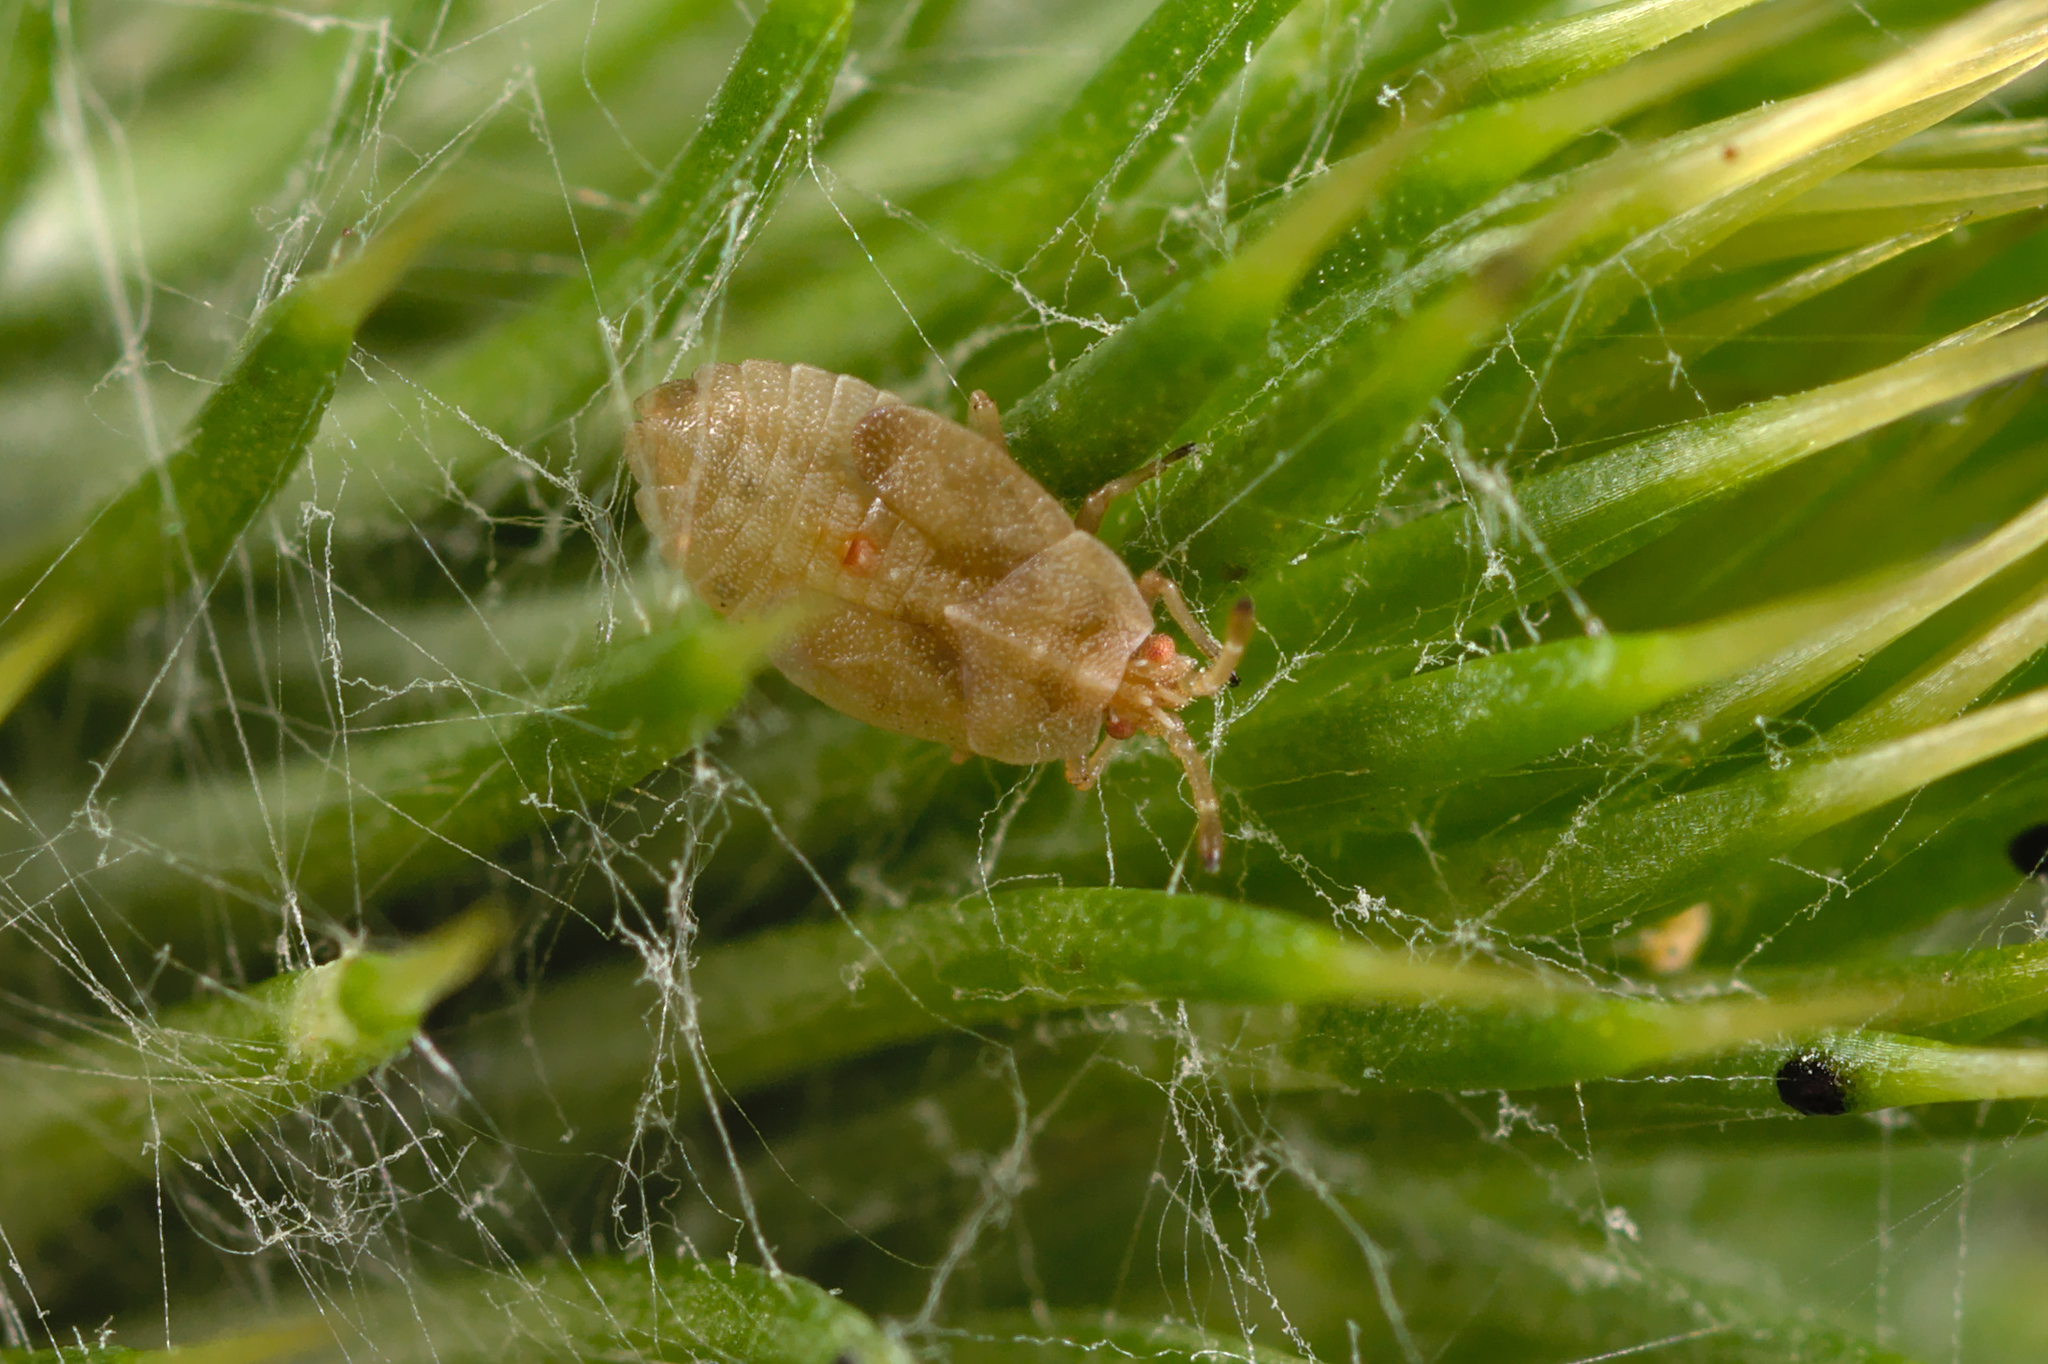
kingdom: Animalia
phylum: Arthropoda
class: Insecta
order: Hemiptera
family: Tingidae
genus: Tingis
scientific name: Tingis cardui
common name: Spear thistle lacebug
